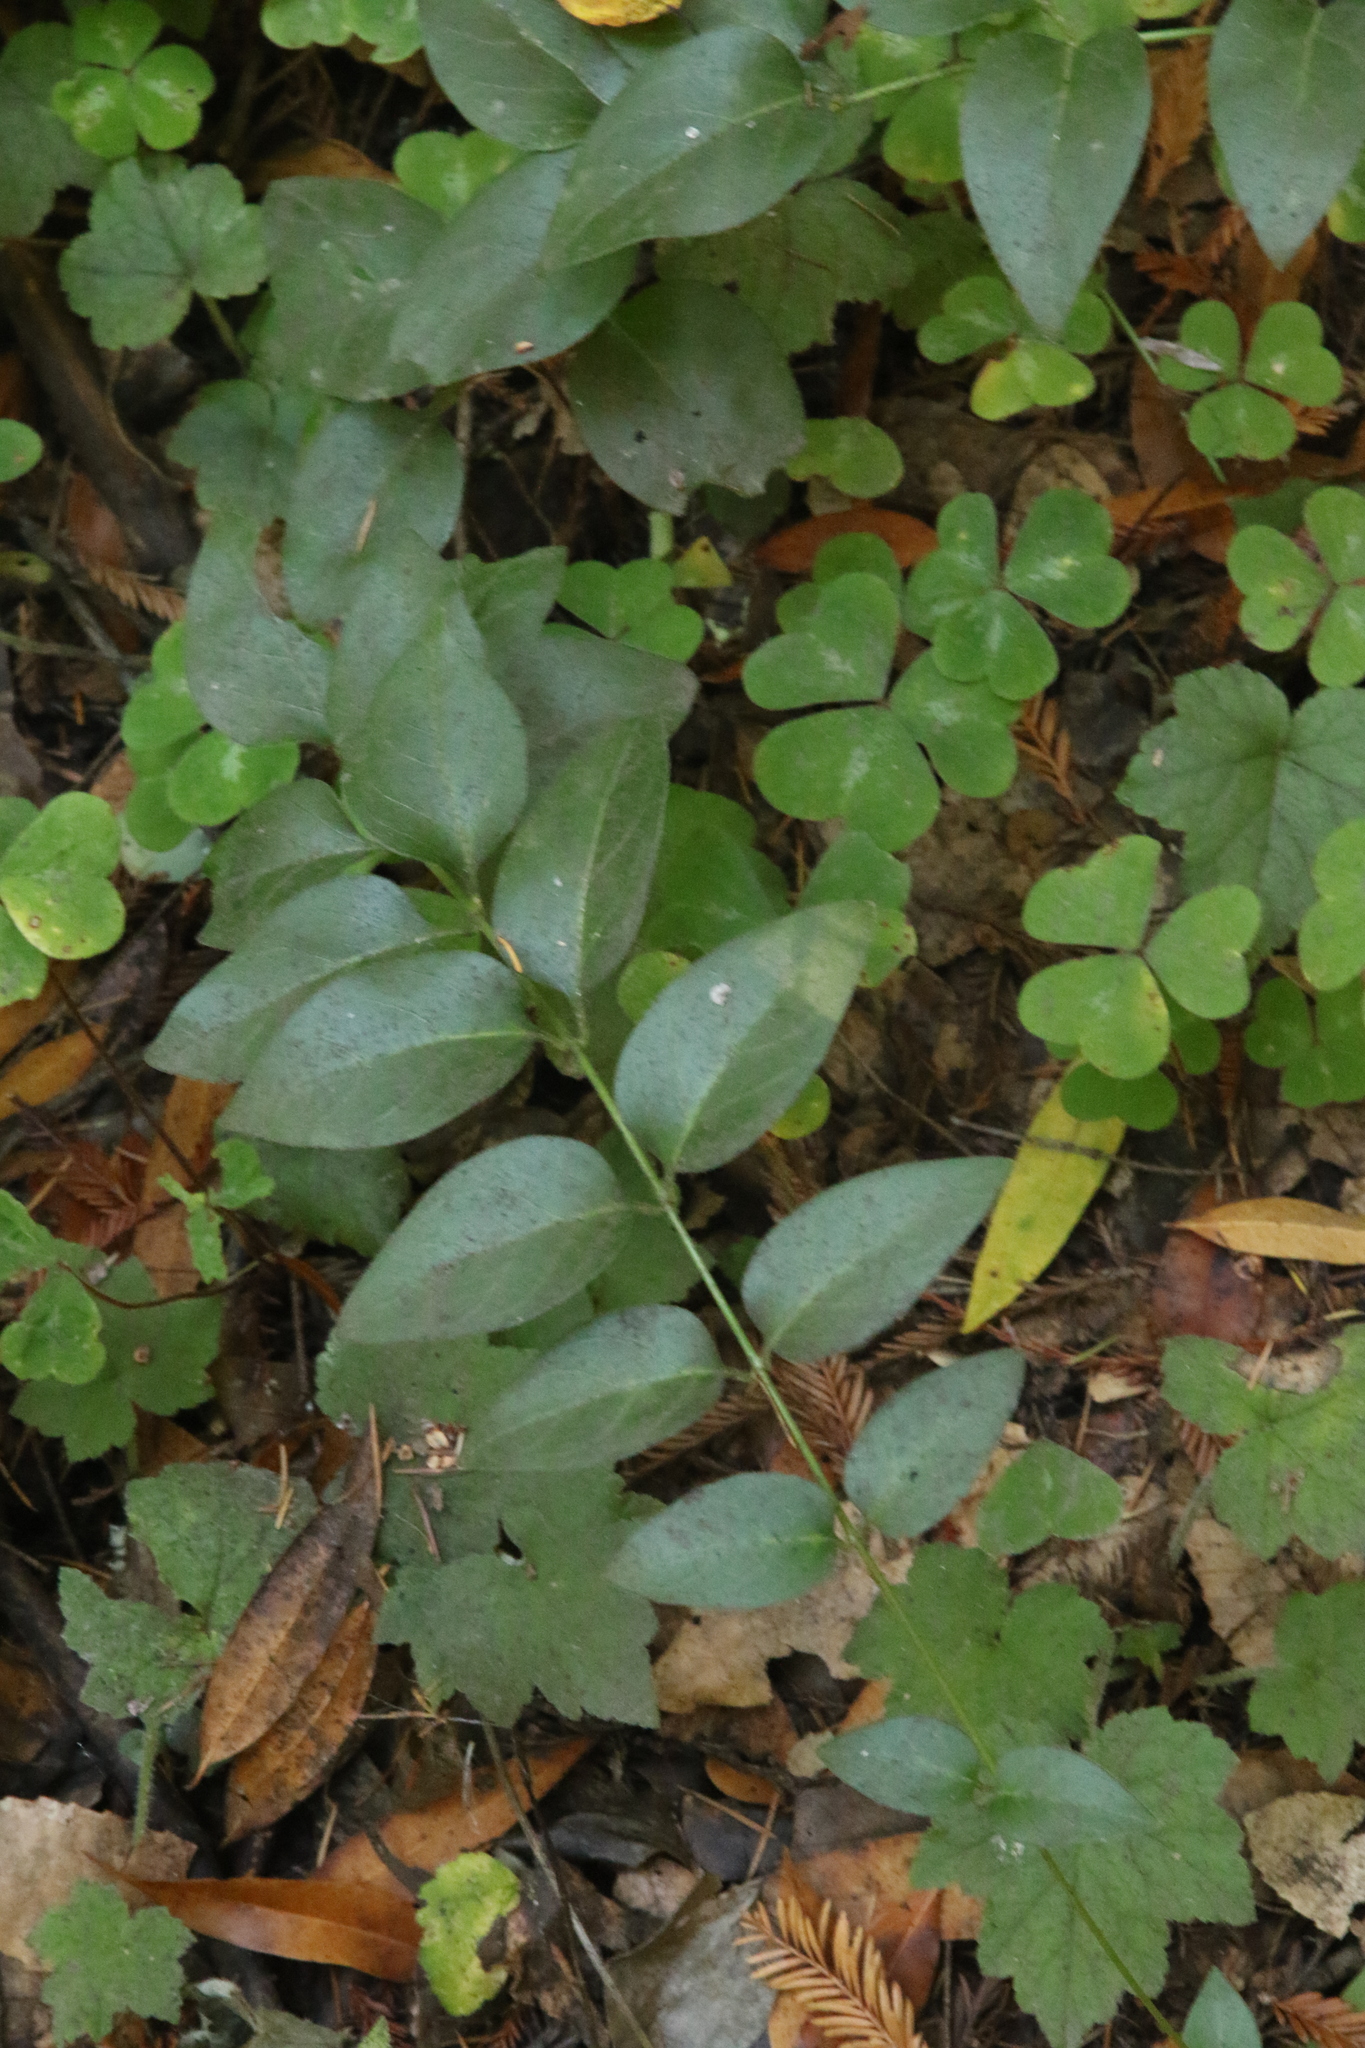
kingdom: Plantae
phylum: Tracheophyta
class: Magnoliopsida
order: Gentianales
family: Apocynaceae
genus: Vinca
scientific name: Vinca major
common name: Greater periwinkle
